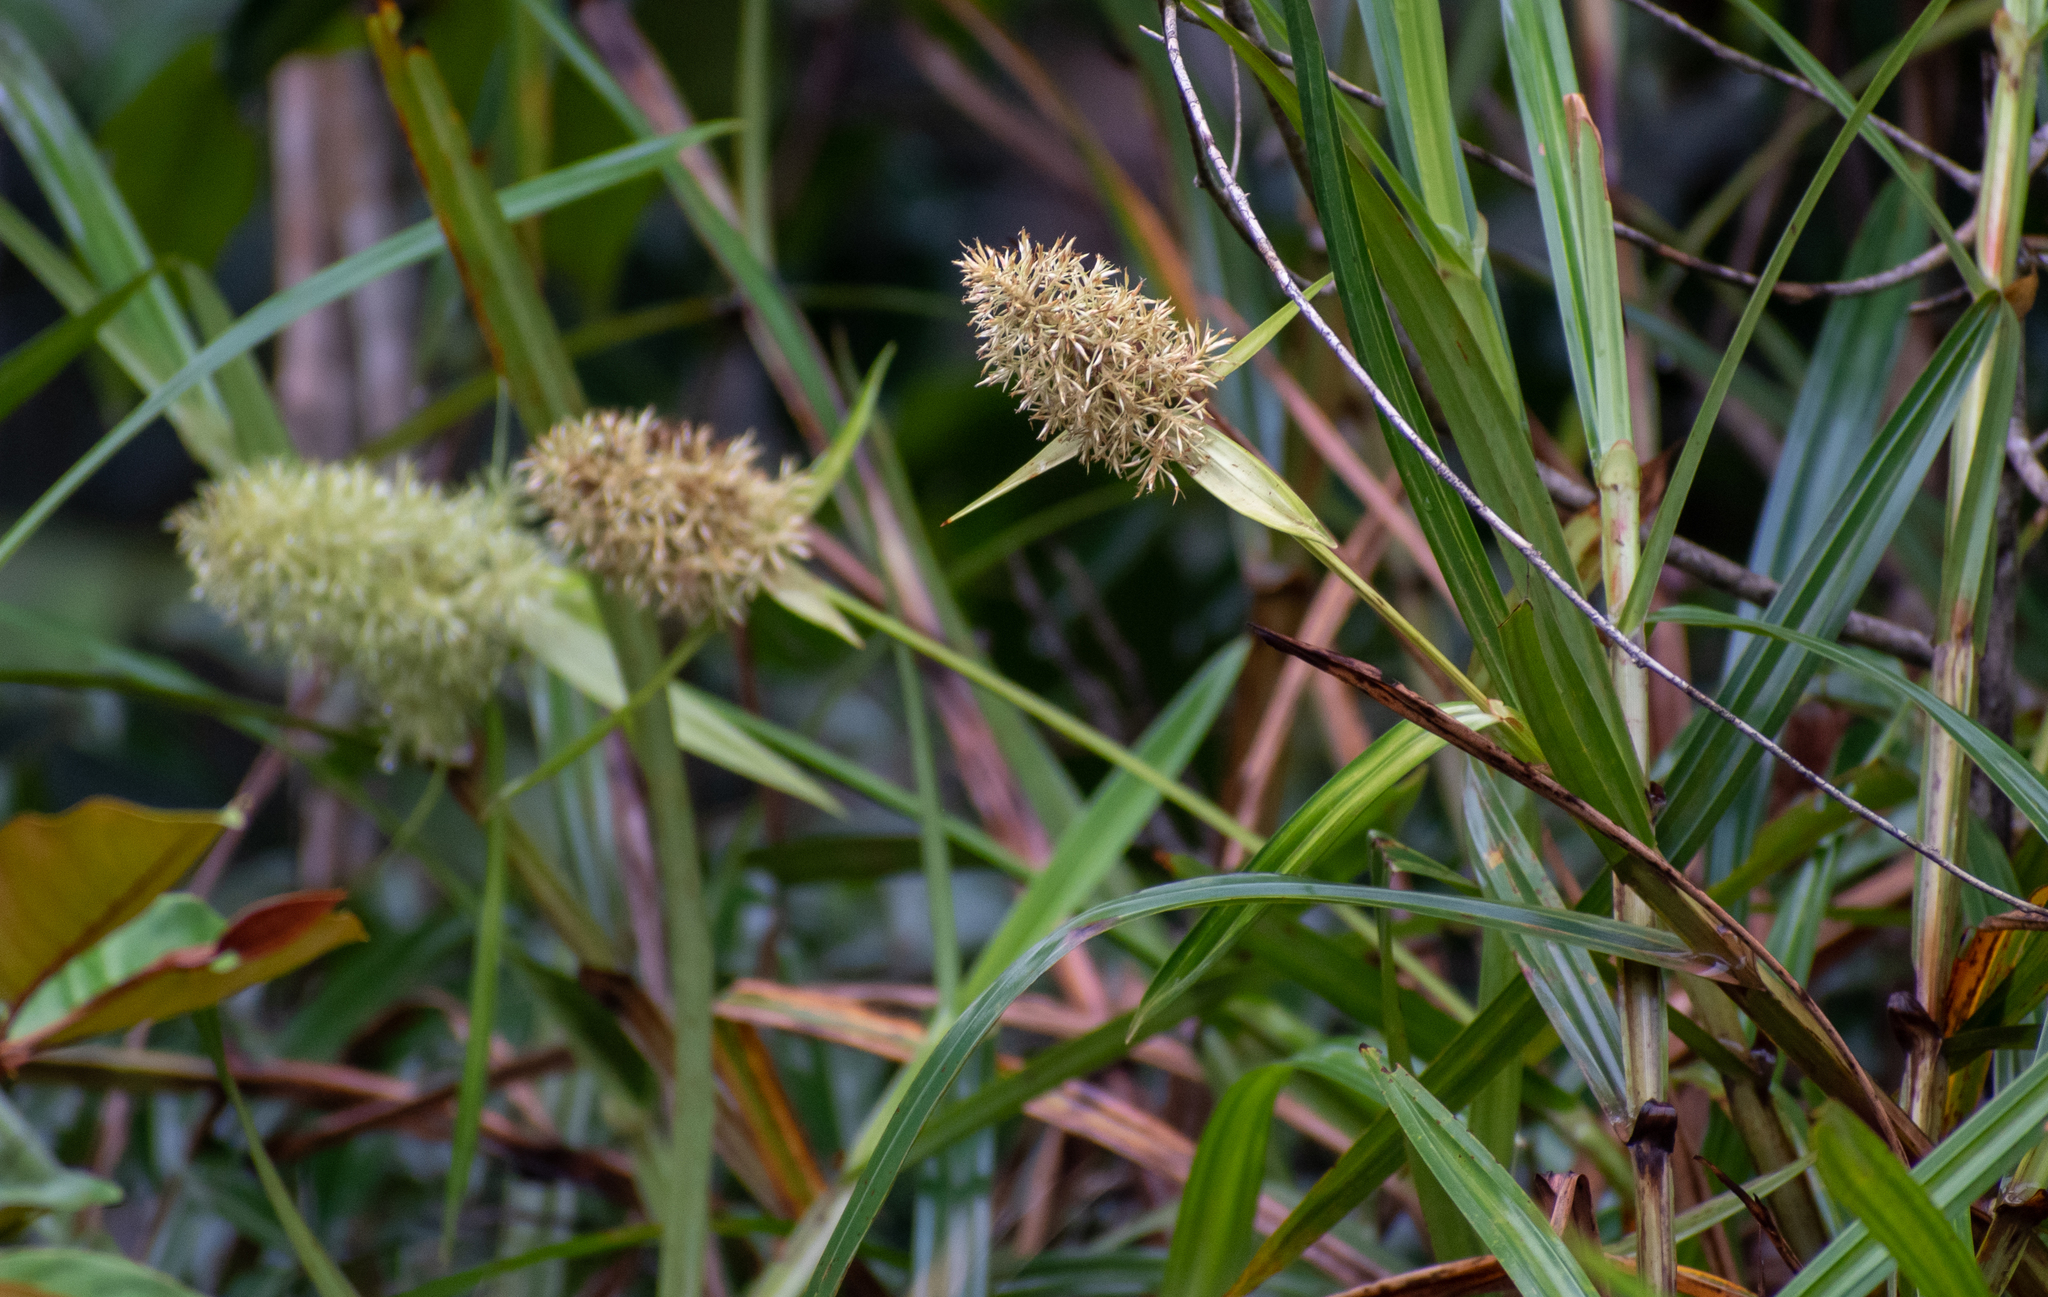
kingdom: Plantae
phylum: Tracheophyta
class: Liliopsida
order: Poales
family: Cyperaceae
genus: Scleria
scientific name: Scleria cyperina
